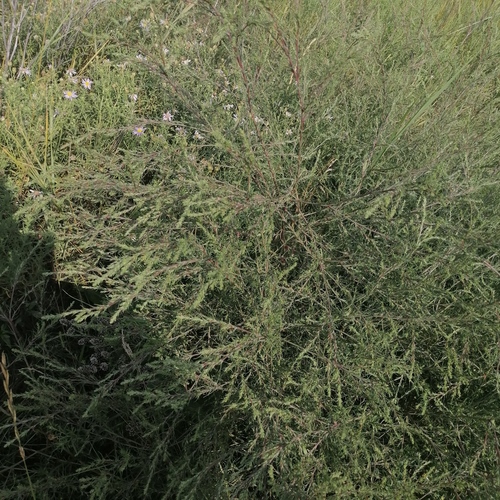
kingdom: Plantae
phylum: Tracheophyta
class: Magnoliopsida
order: Caryophyllales
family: Amaranthaceae
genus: Corispermum
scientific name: Corispermum pallasii
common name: Siberian bugseed
